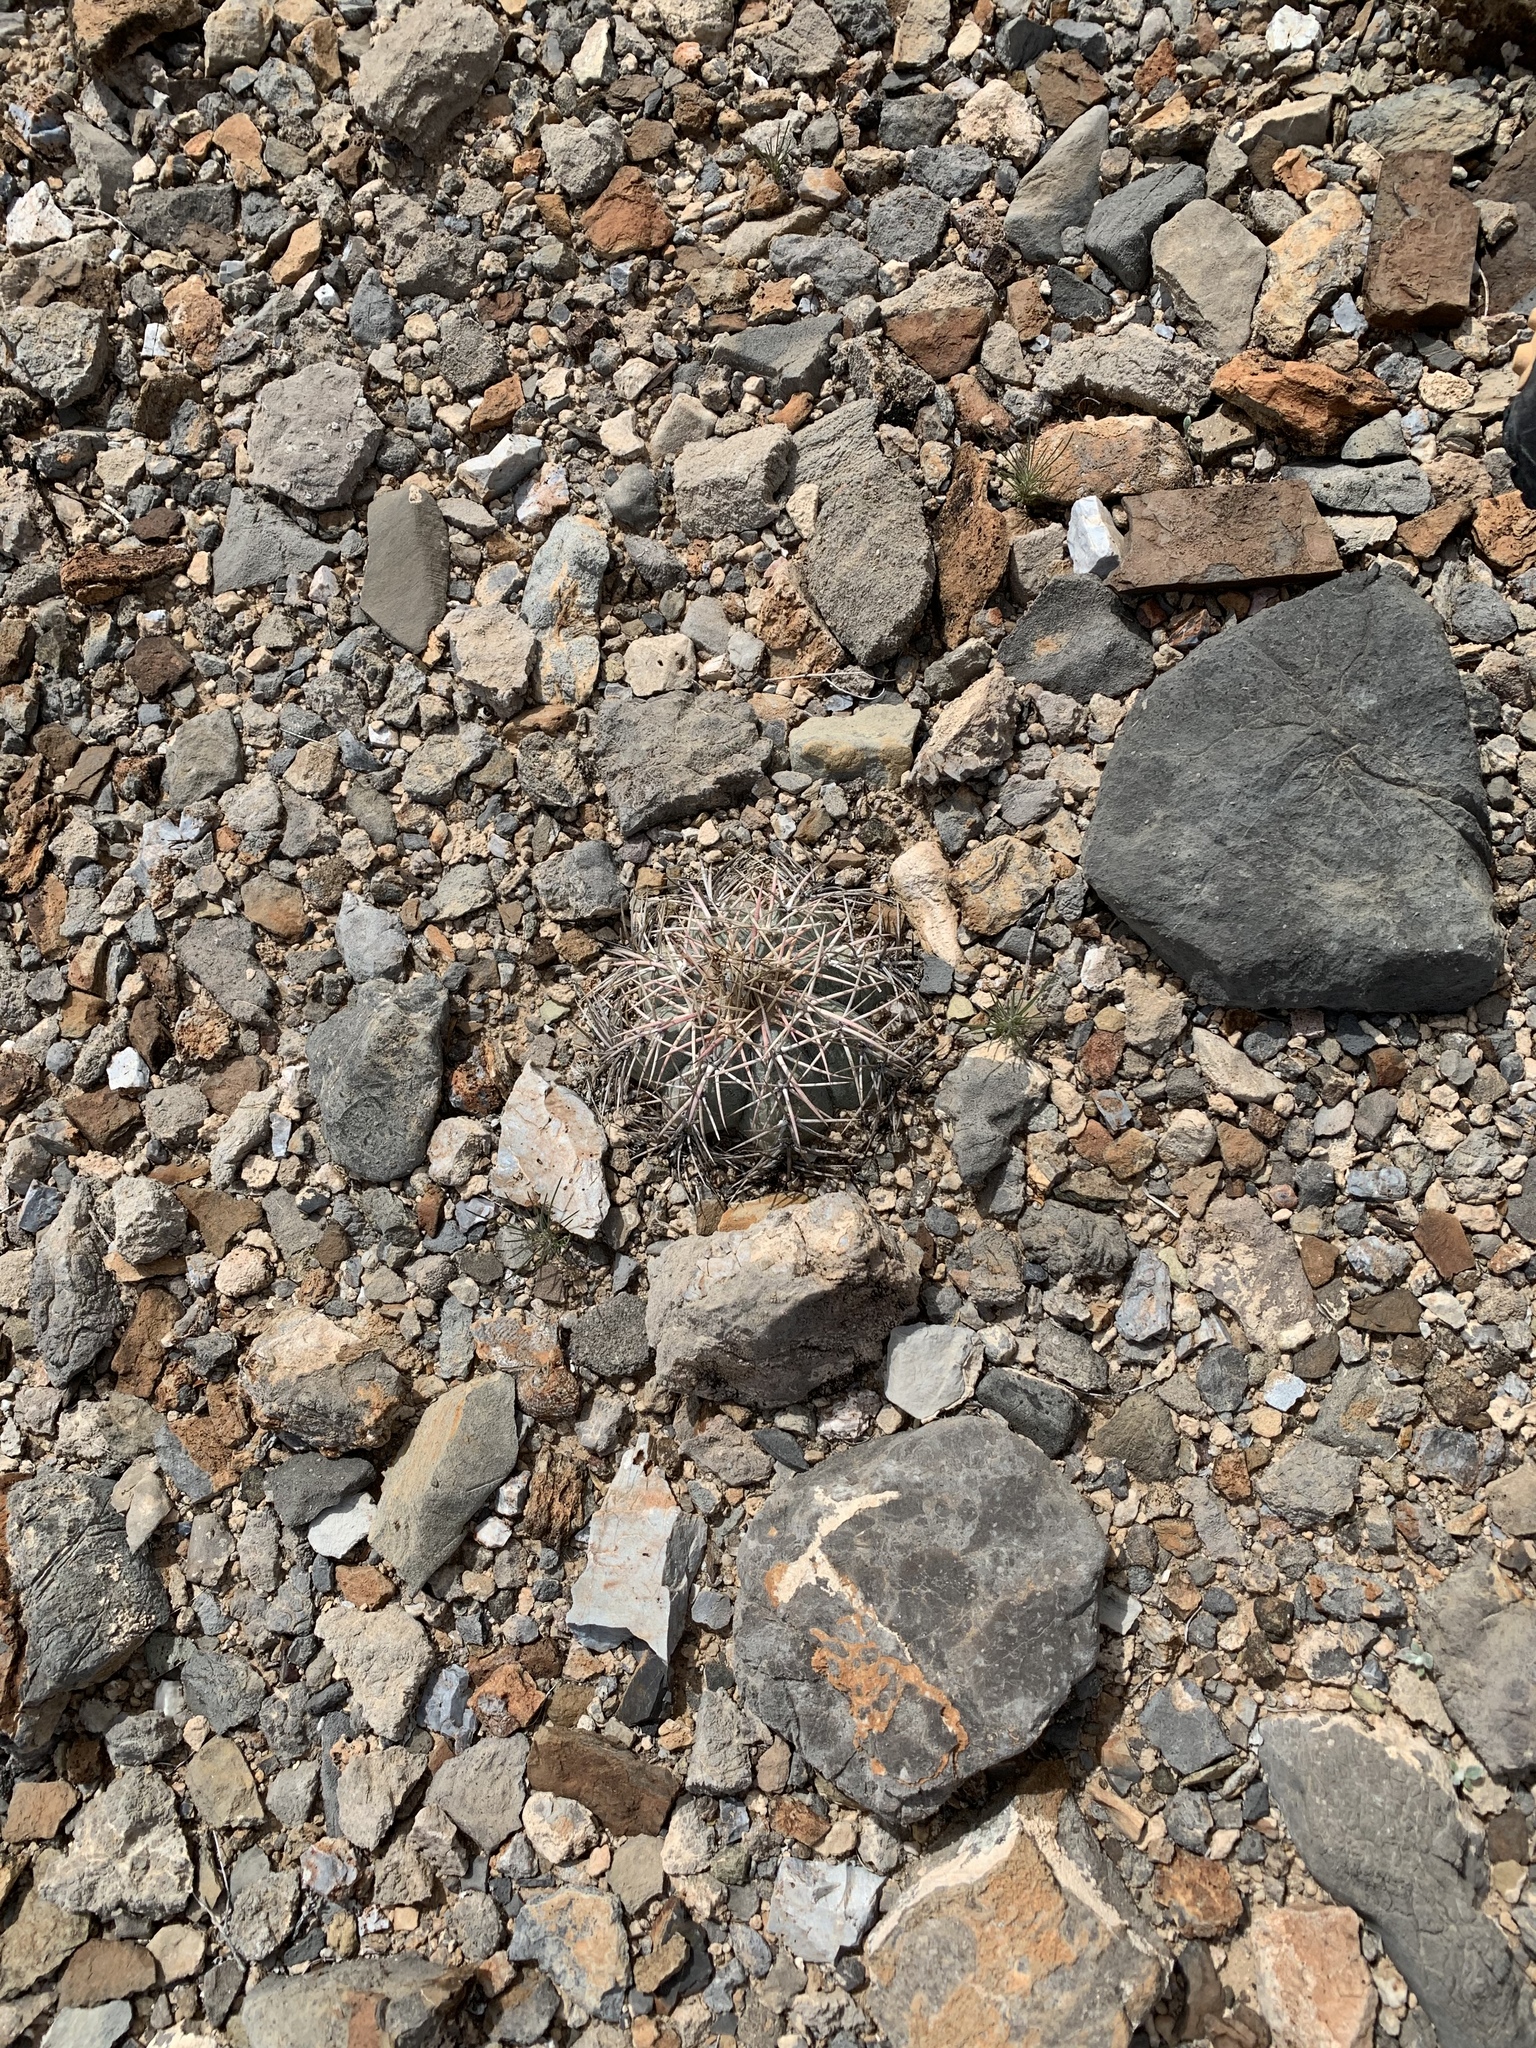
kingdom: Plantae
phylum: Tracheophyta
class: Magnoliopsida
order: Caryophyllales
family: Cactaceae
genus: Echinocactus
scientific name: Echinocactus horizonthalonius
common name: Devilshead
